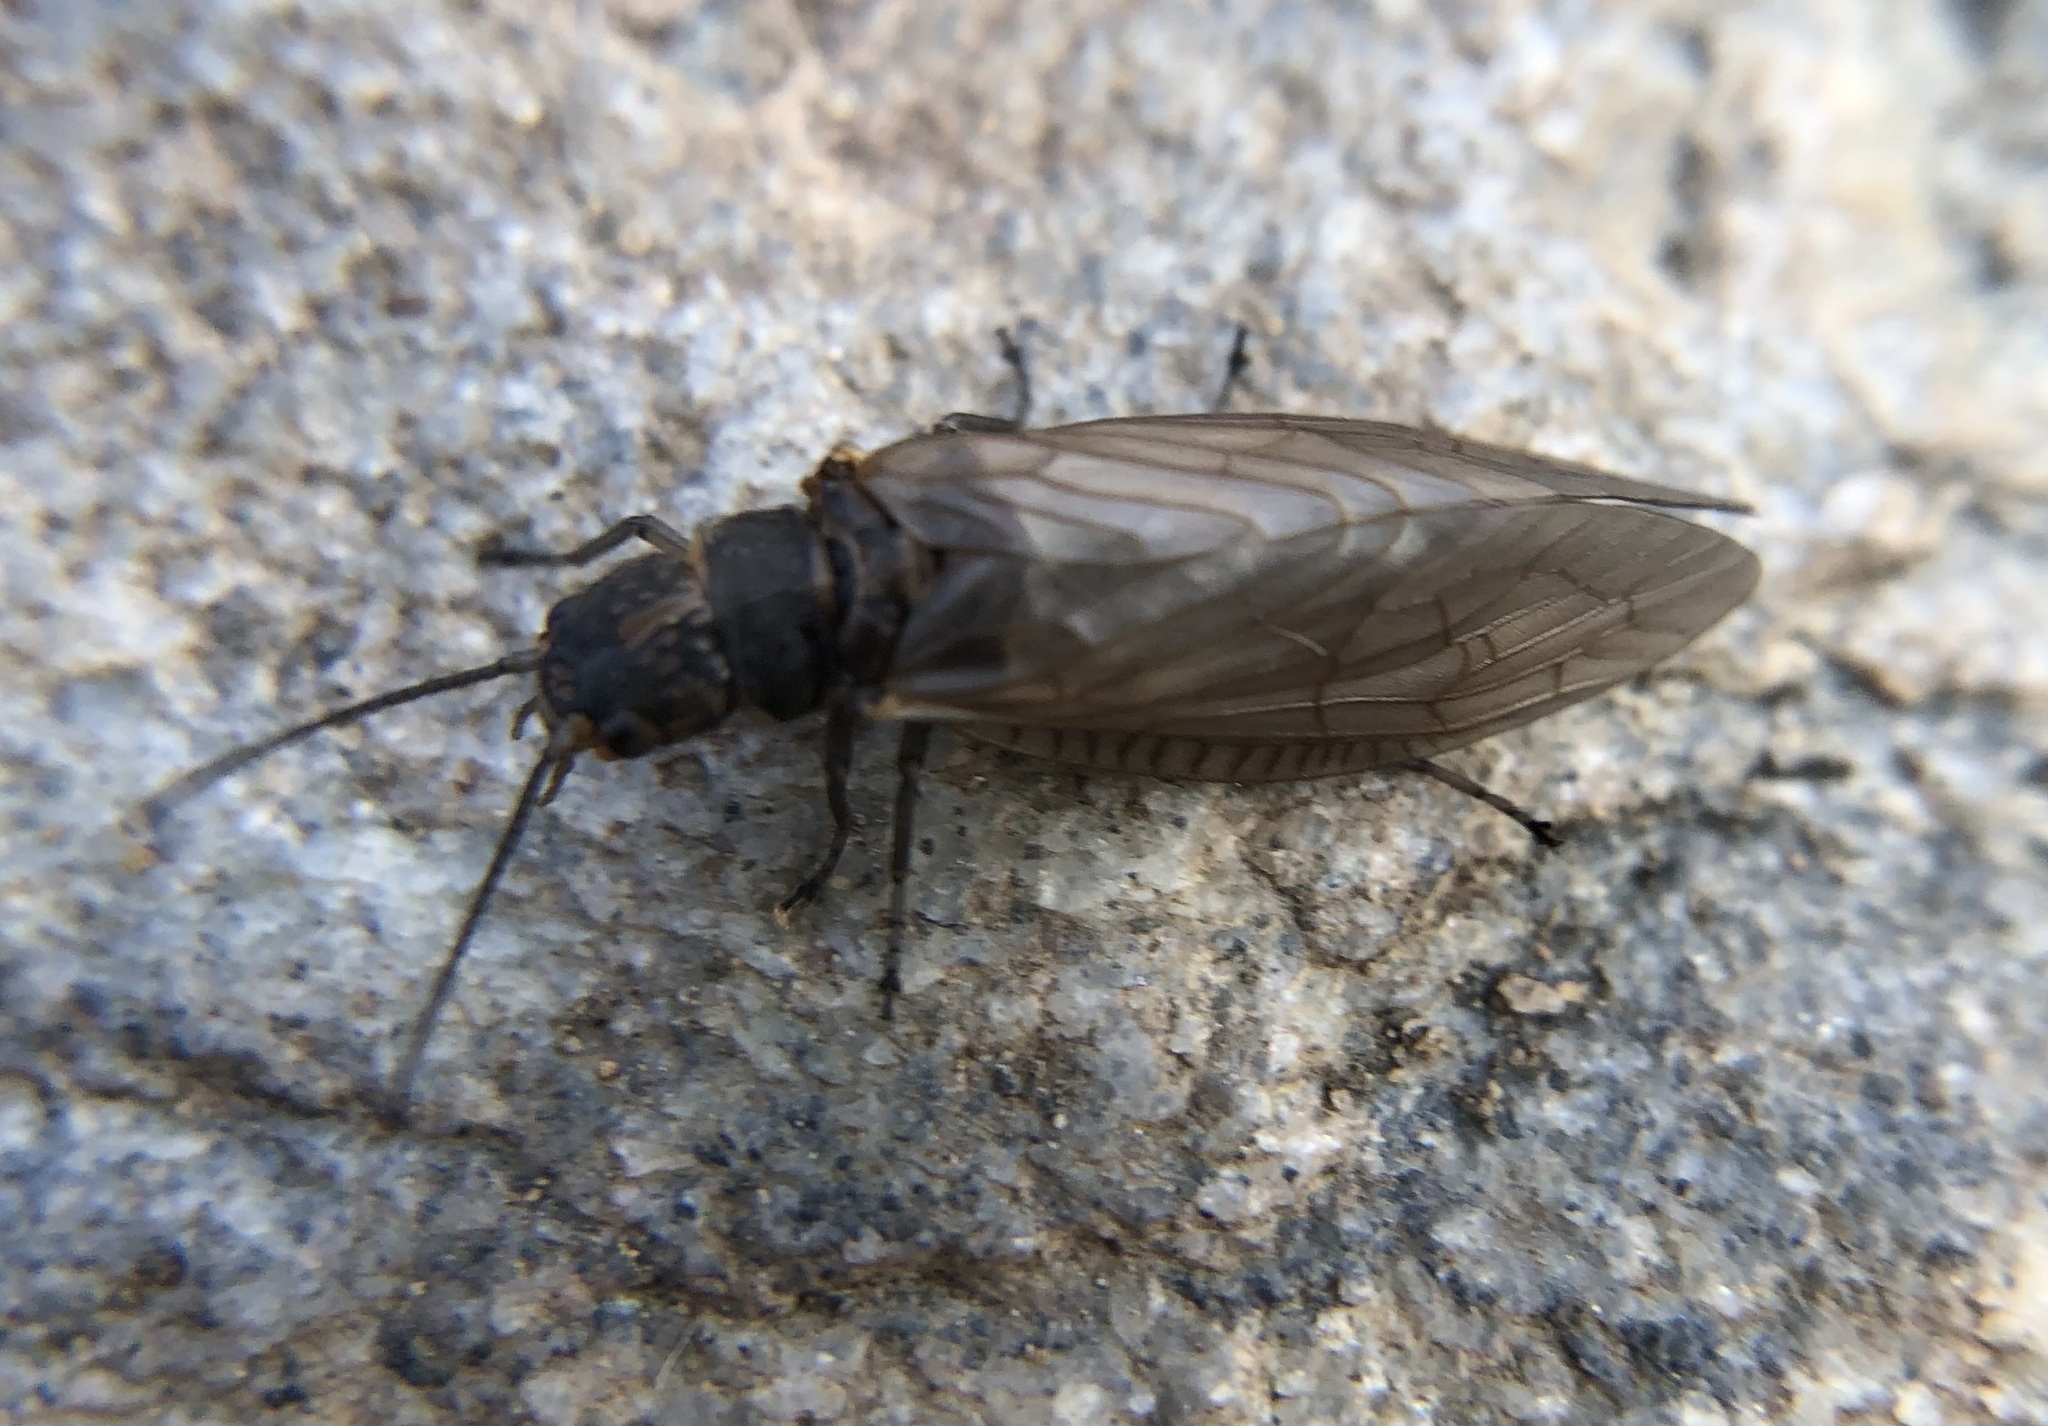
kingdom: Animalia
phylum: Arthropoda
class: Insecta
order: Megaloptera
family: Sialidae
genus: Sialis
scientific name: Sialis
